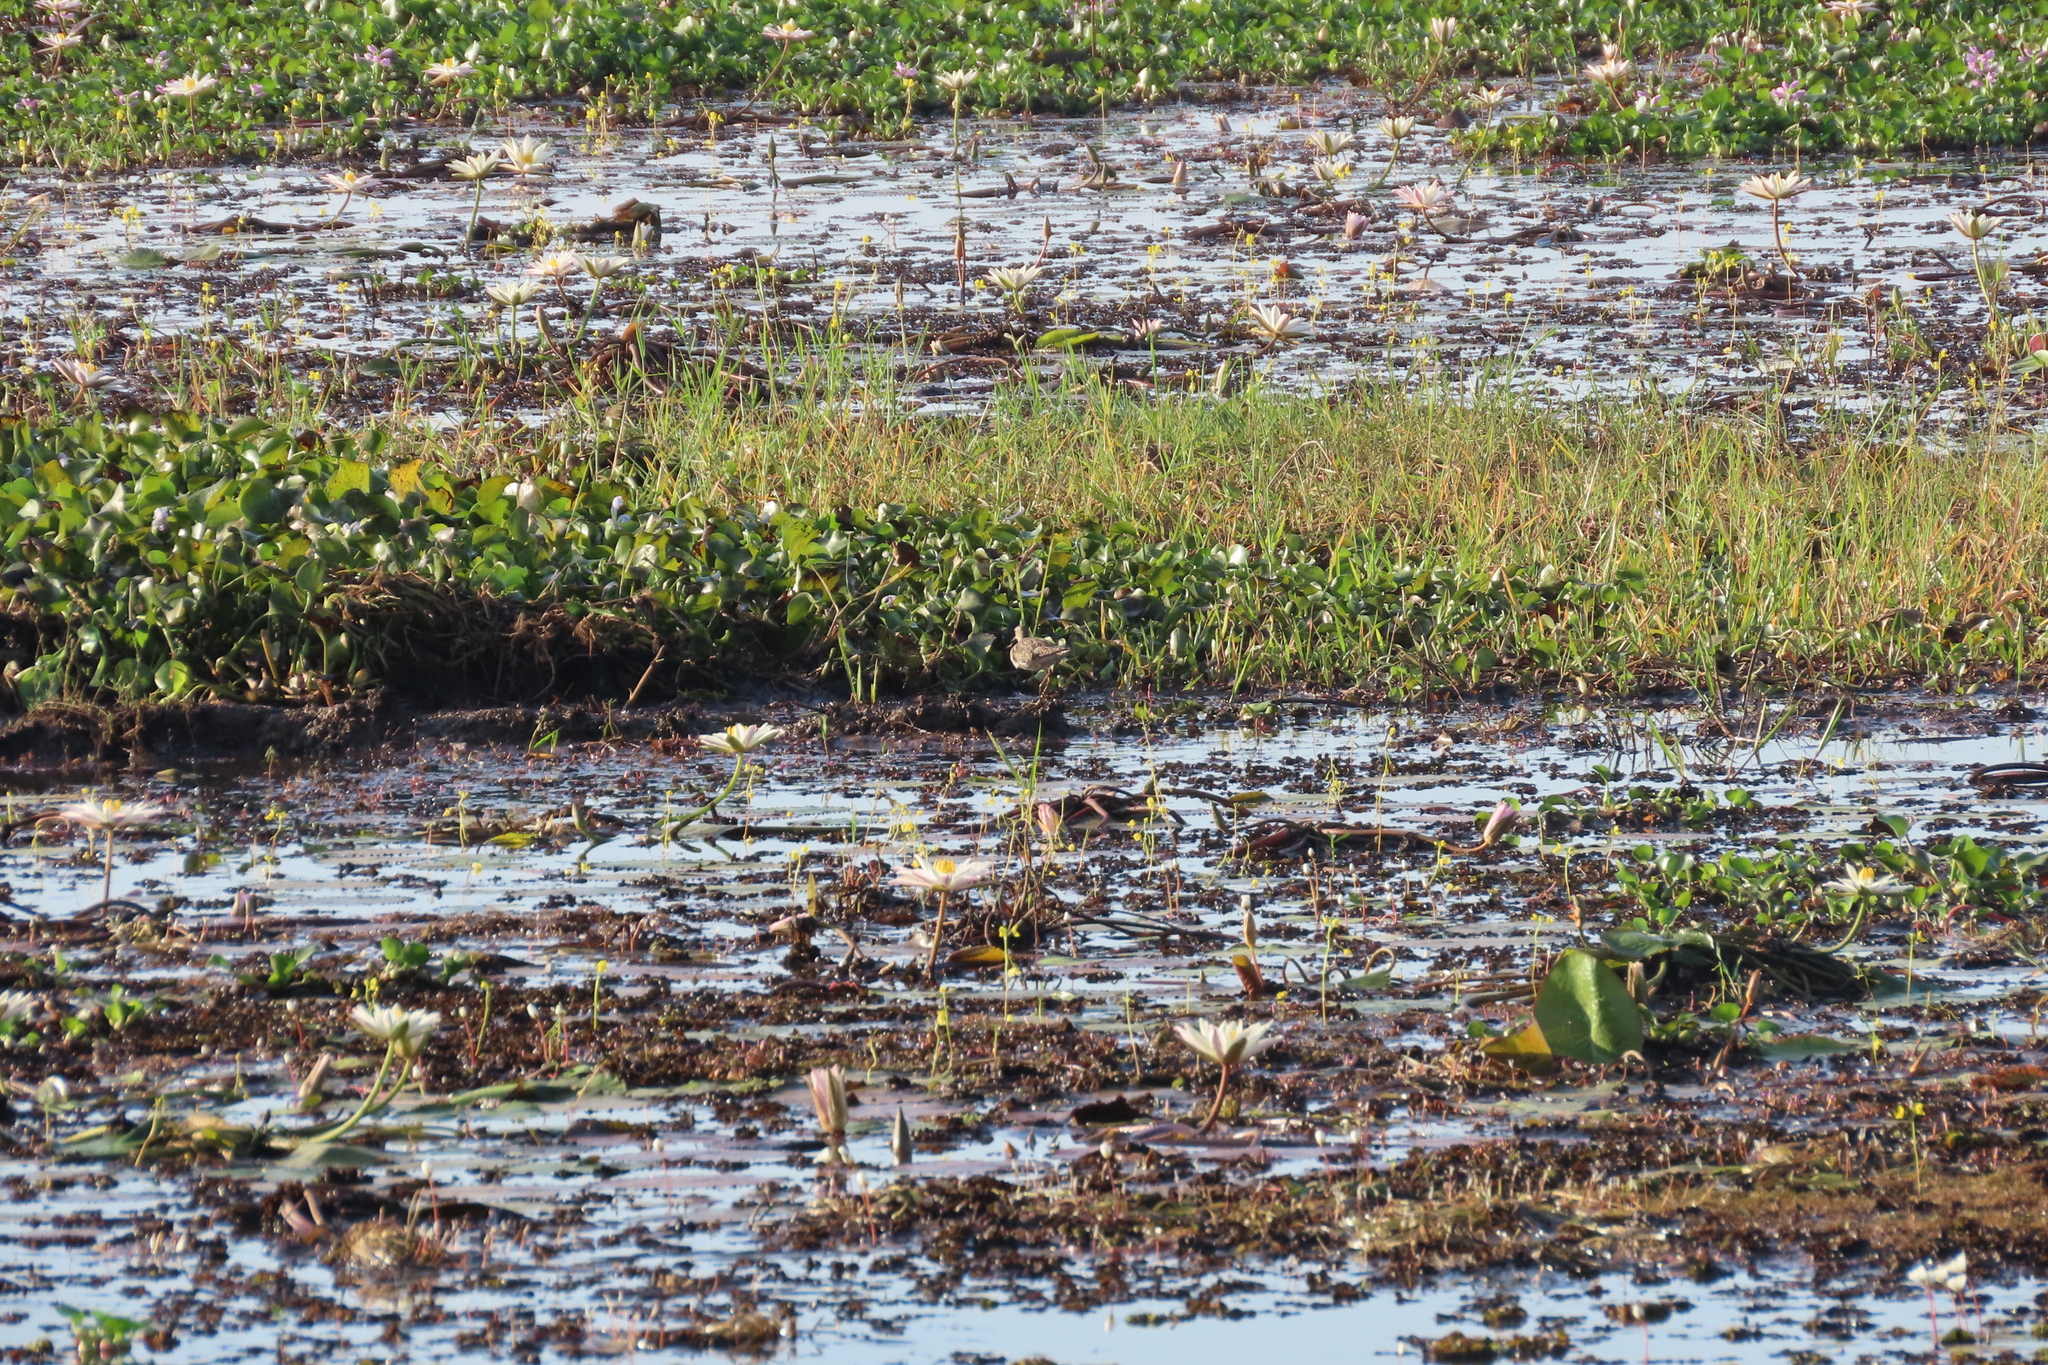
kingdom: Animalia
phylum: Chordata
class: Aves
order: Charadriiformes
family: Scolopacidae
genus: Tringa
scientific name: Tringa glareola
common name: Wood sandpiper
